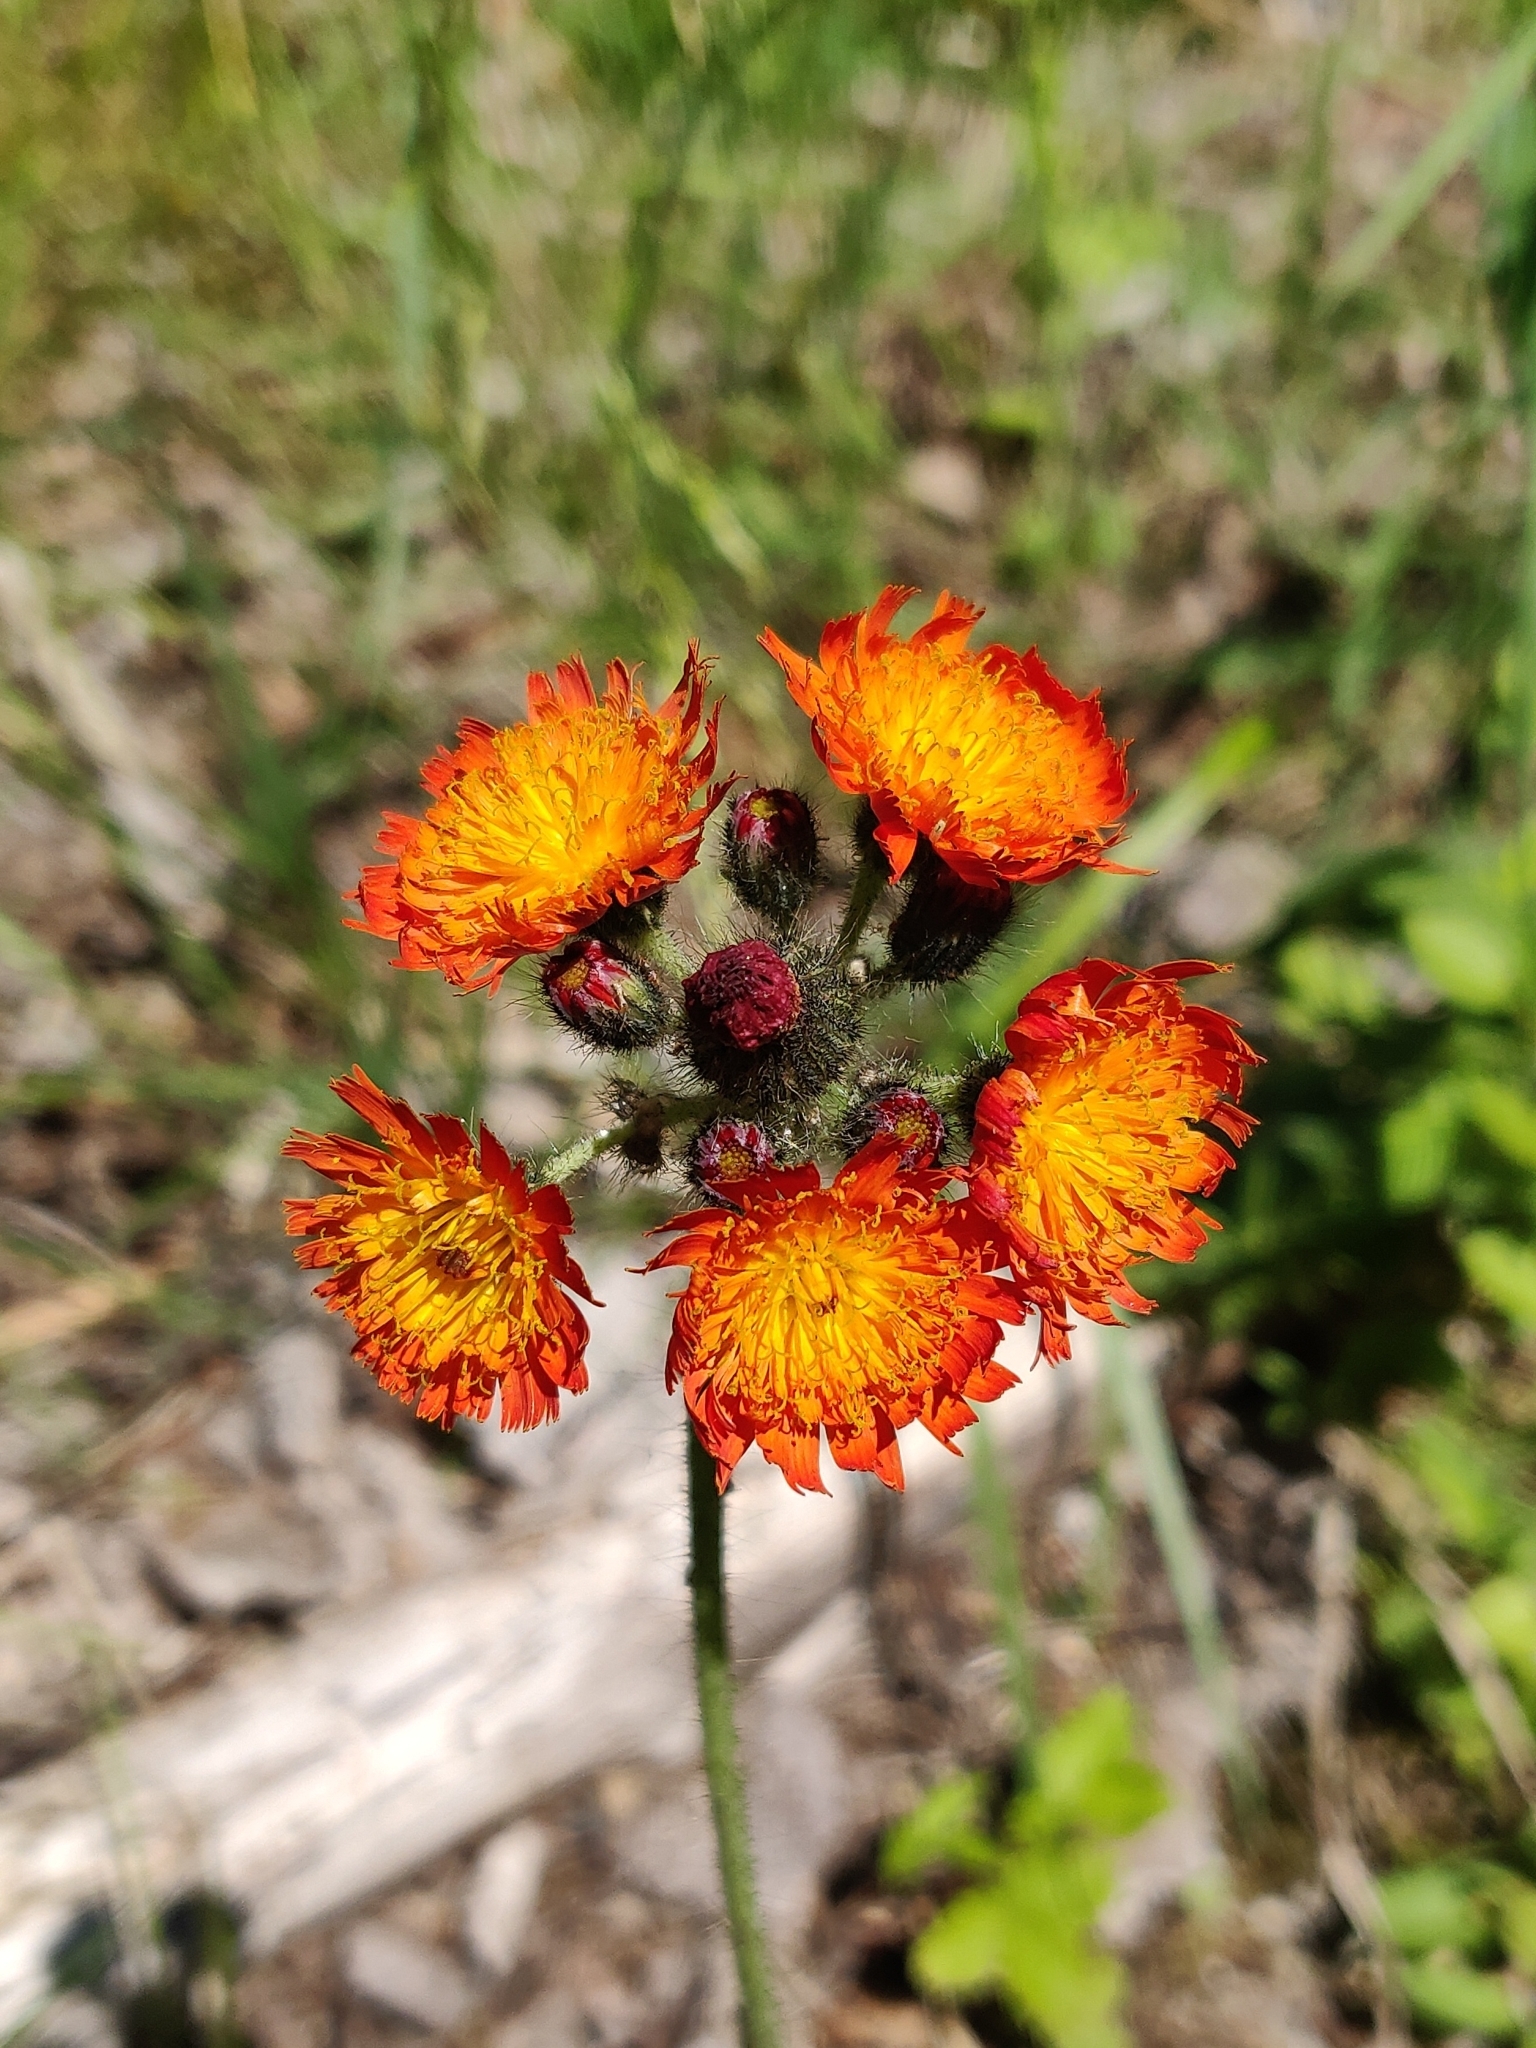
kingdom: Plantae
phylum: Tracheophyta
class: Magnoliopsida
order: Asterales
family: Asteraceae
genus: Pilosella
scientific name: Pilosella aurantiaca
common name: Fox-and-cubs
